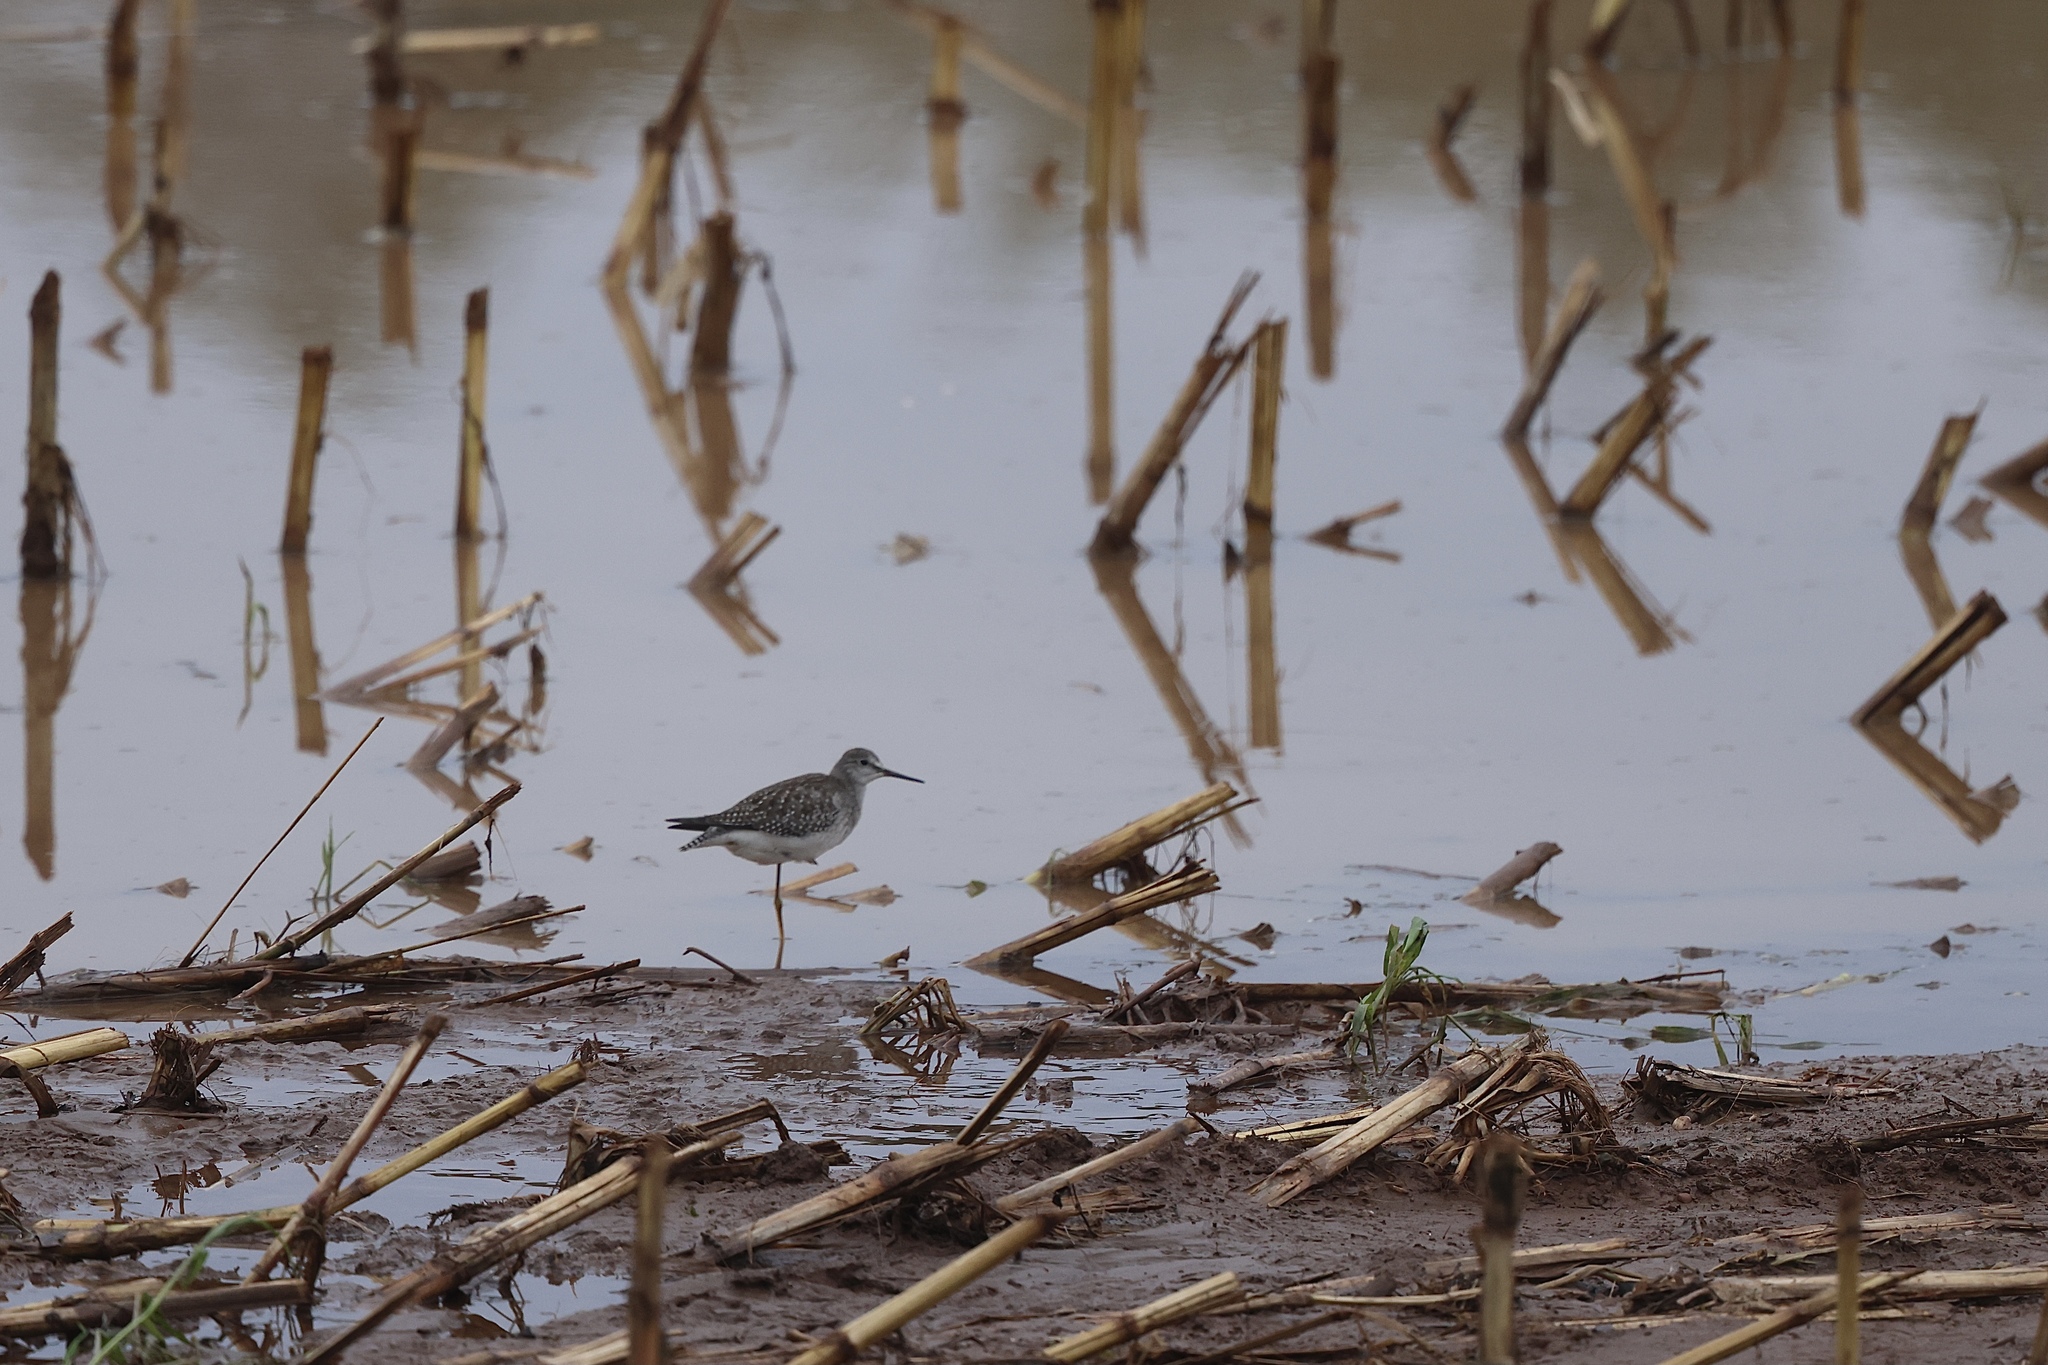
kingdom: Animalia
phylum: Chordata
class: Aves
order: Charadriiformes
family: Scolopacidae
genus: Tringa
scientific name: Tringa flavipes
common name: Lesser yellowlegs
